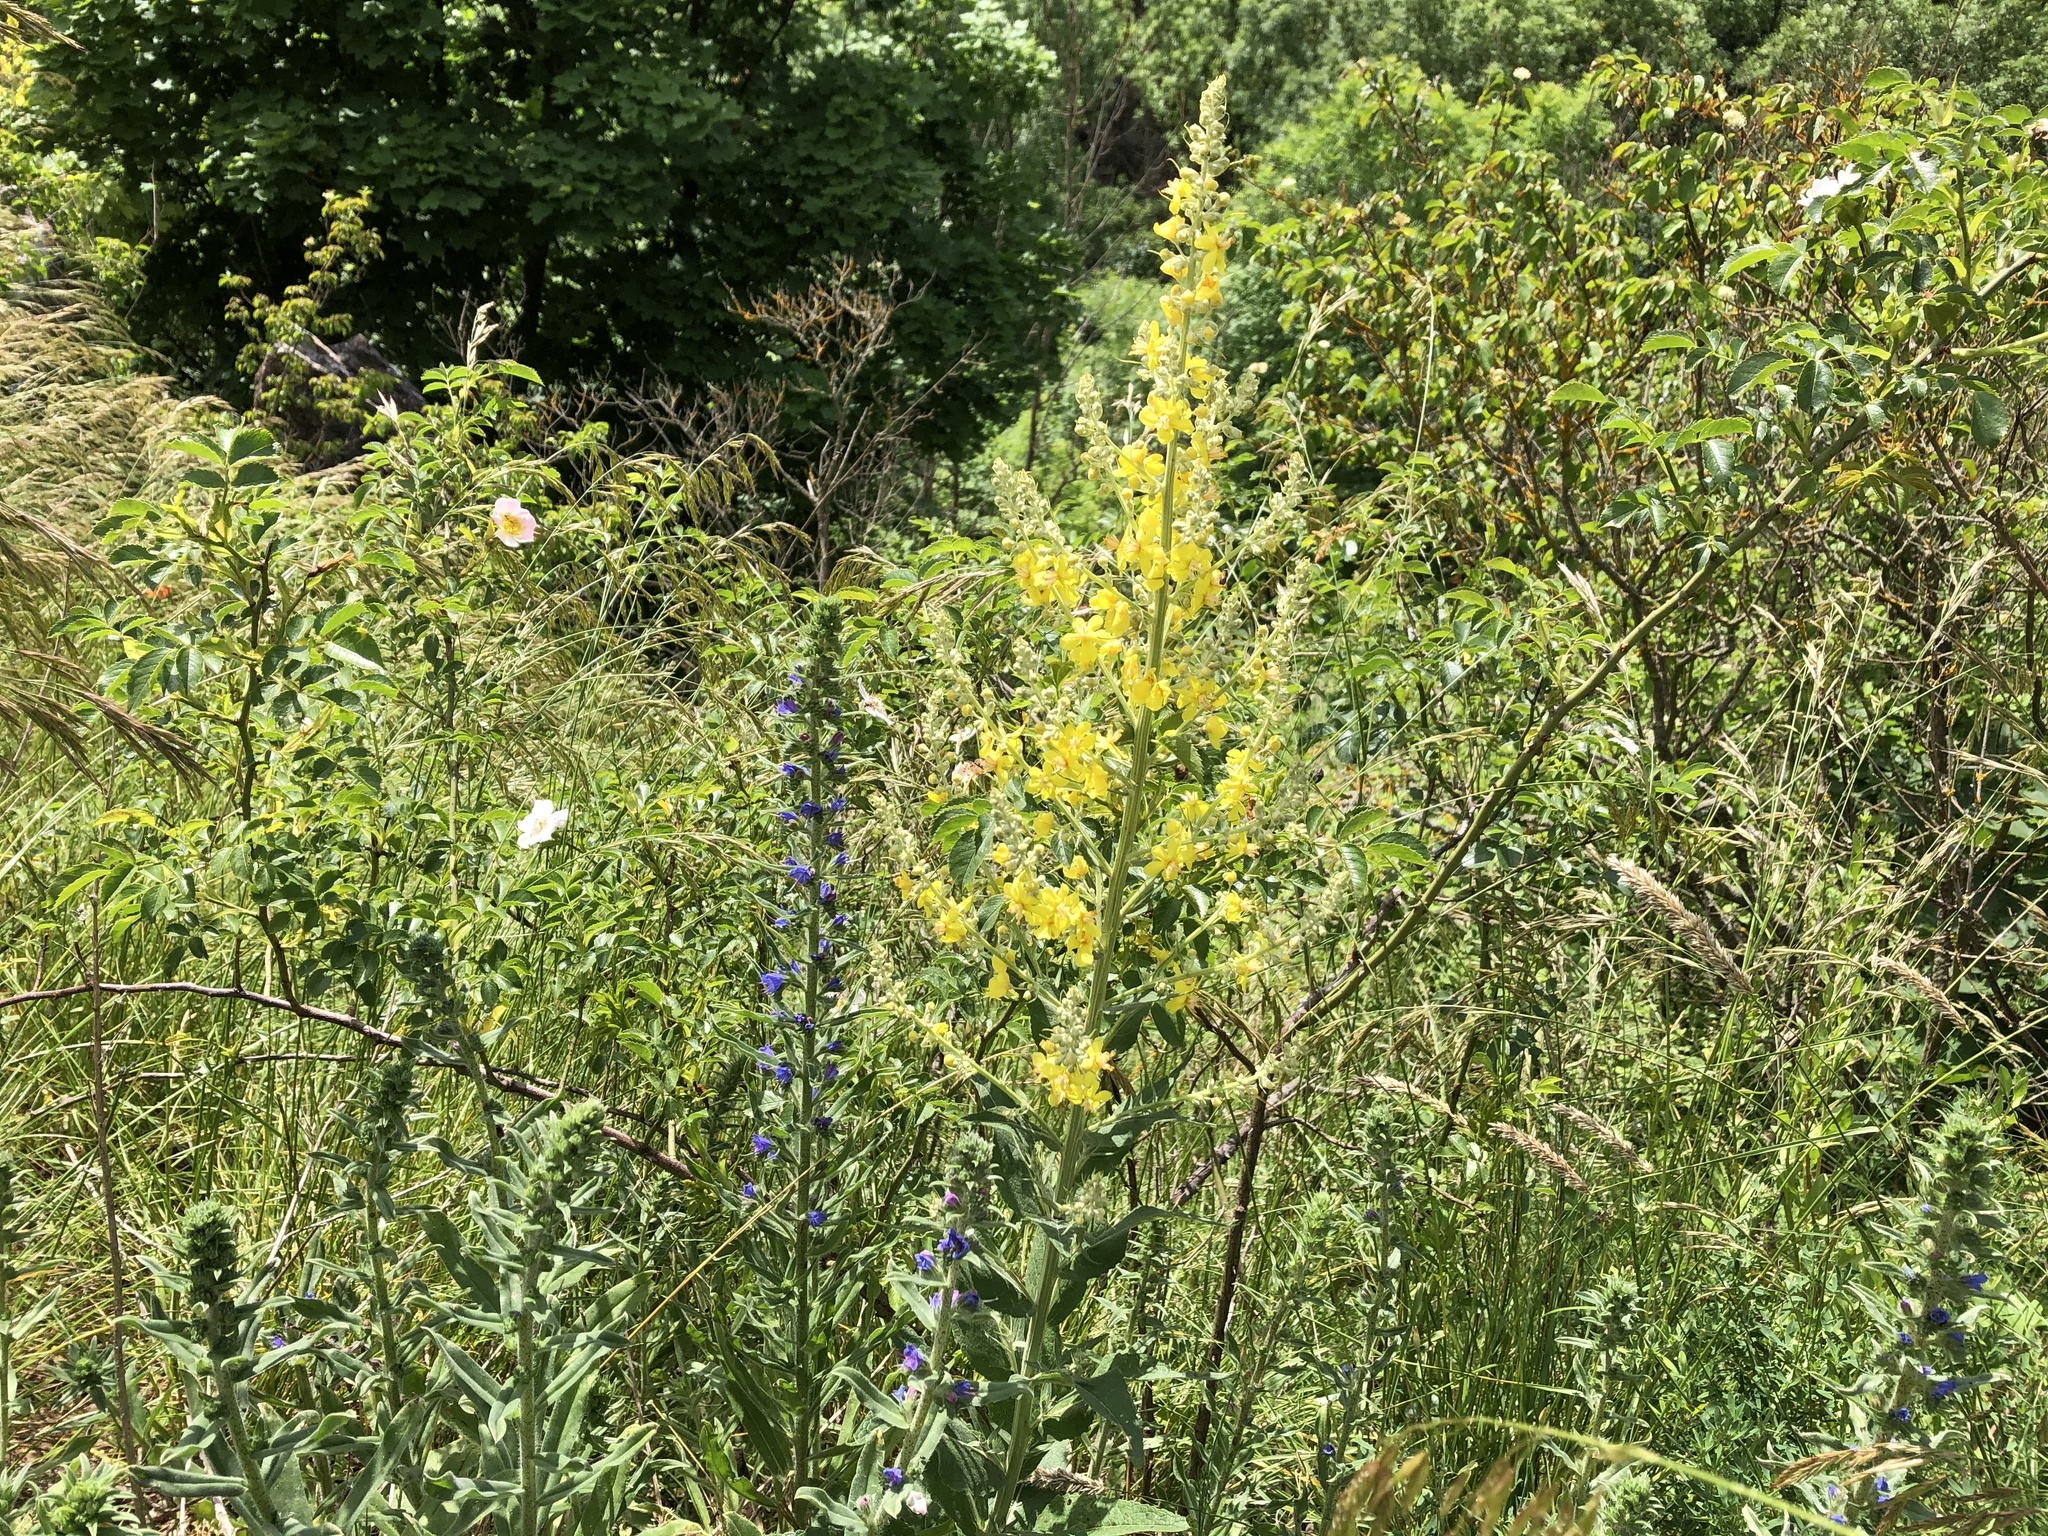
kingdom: Plantae
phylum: Tracheophyta
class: Magnoliopsida
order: Lamiales
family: Scrophulariaceae
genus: Verbascum
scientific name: Verbascum lychnitis
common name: White mullein
